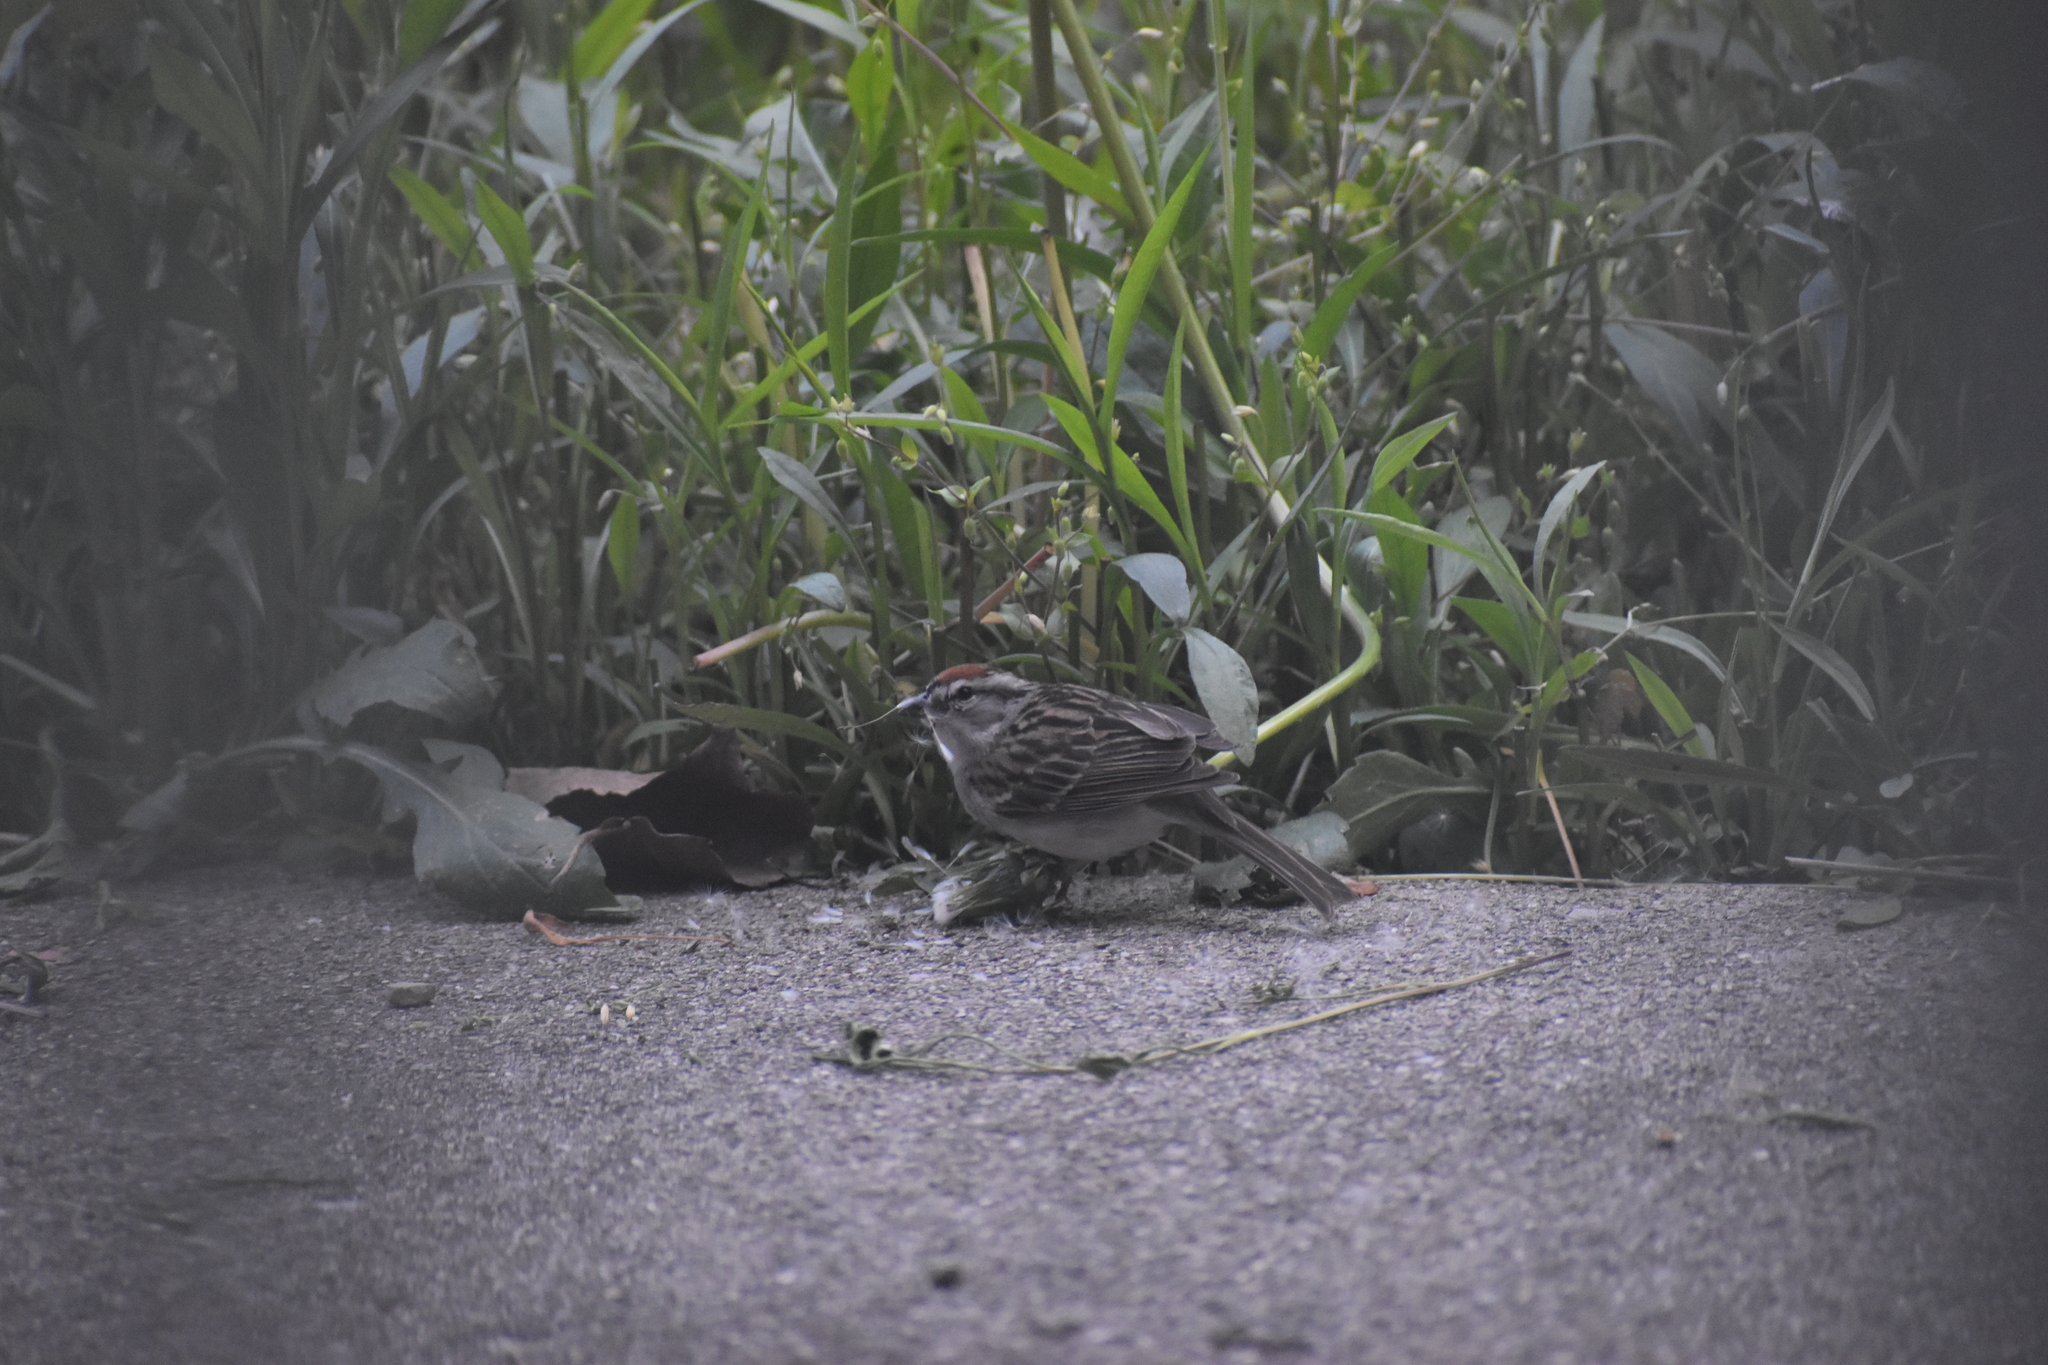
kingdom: Animalia
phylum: Chordata
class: Aves
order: Passeriformes
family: Passerellidae
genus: Spizella
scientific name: Spizella passerina
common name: Chipping sparrow
